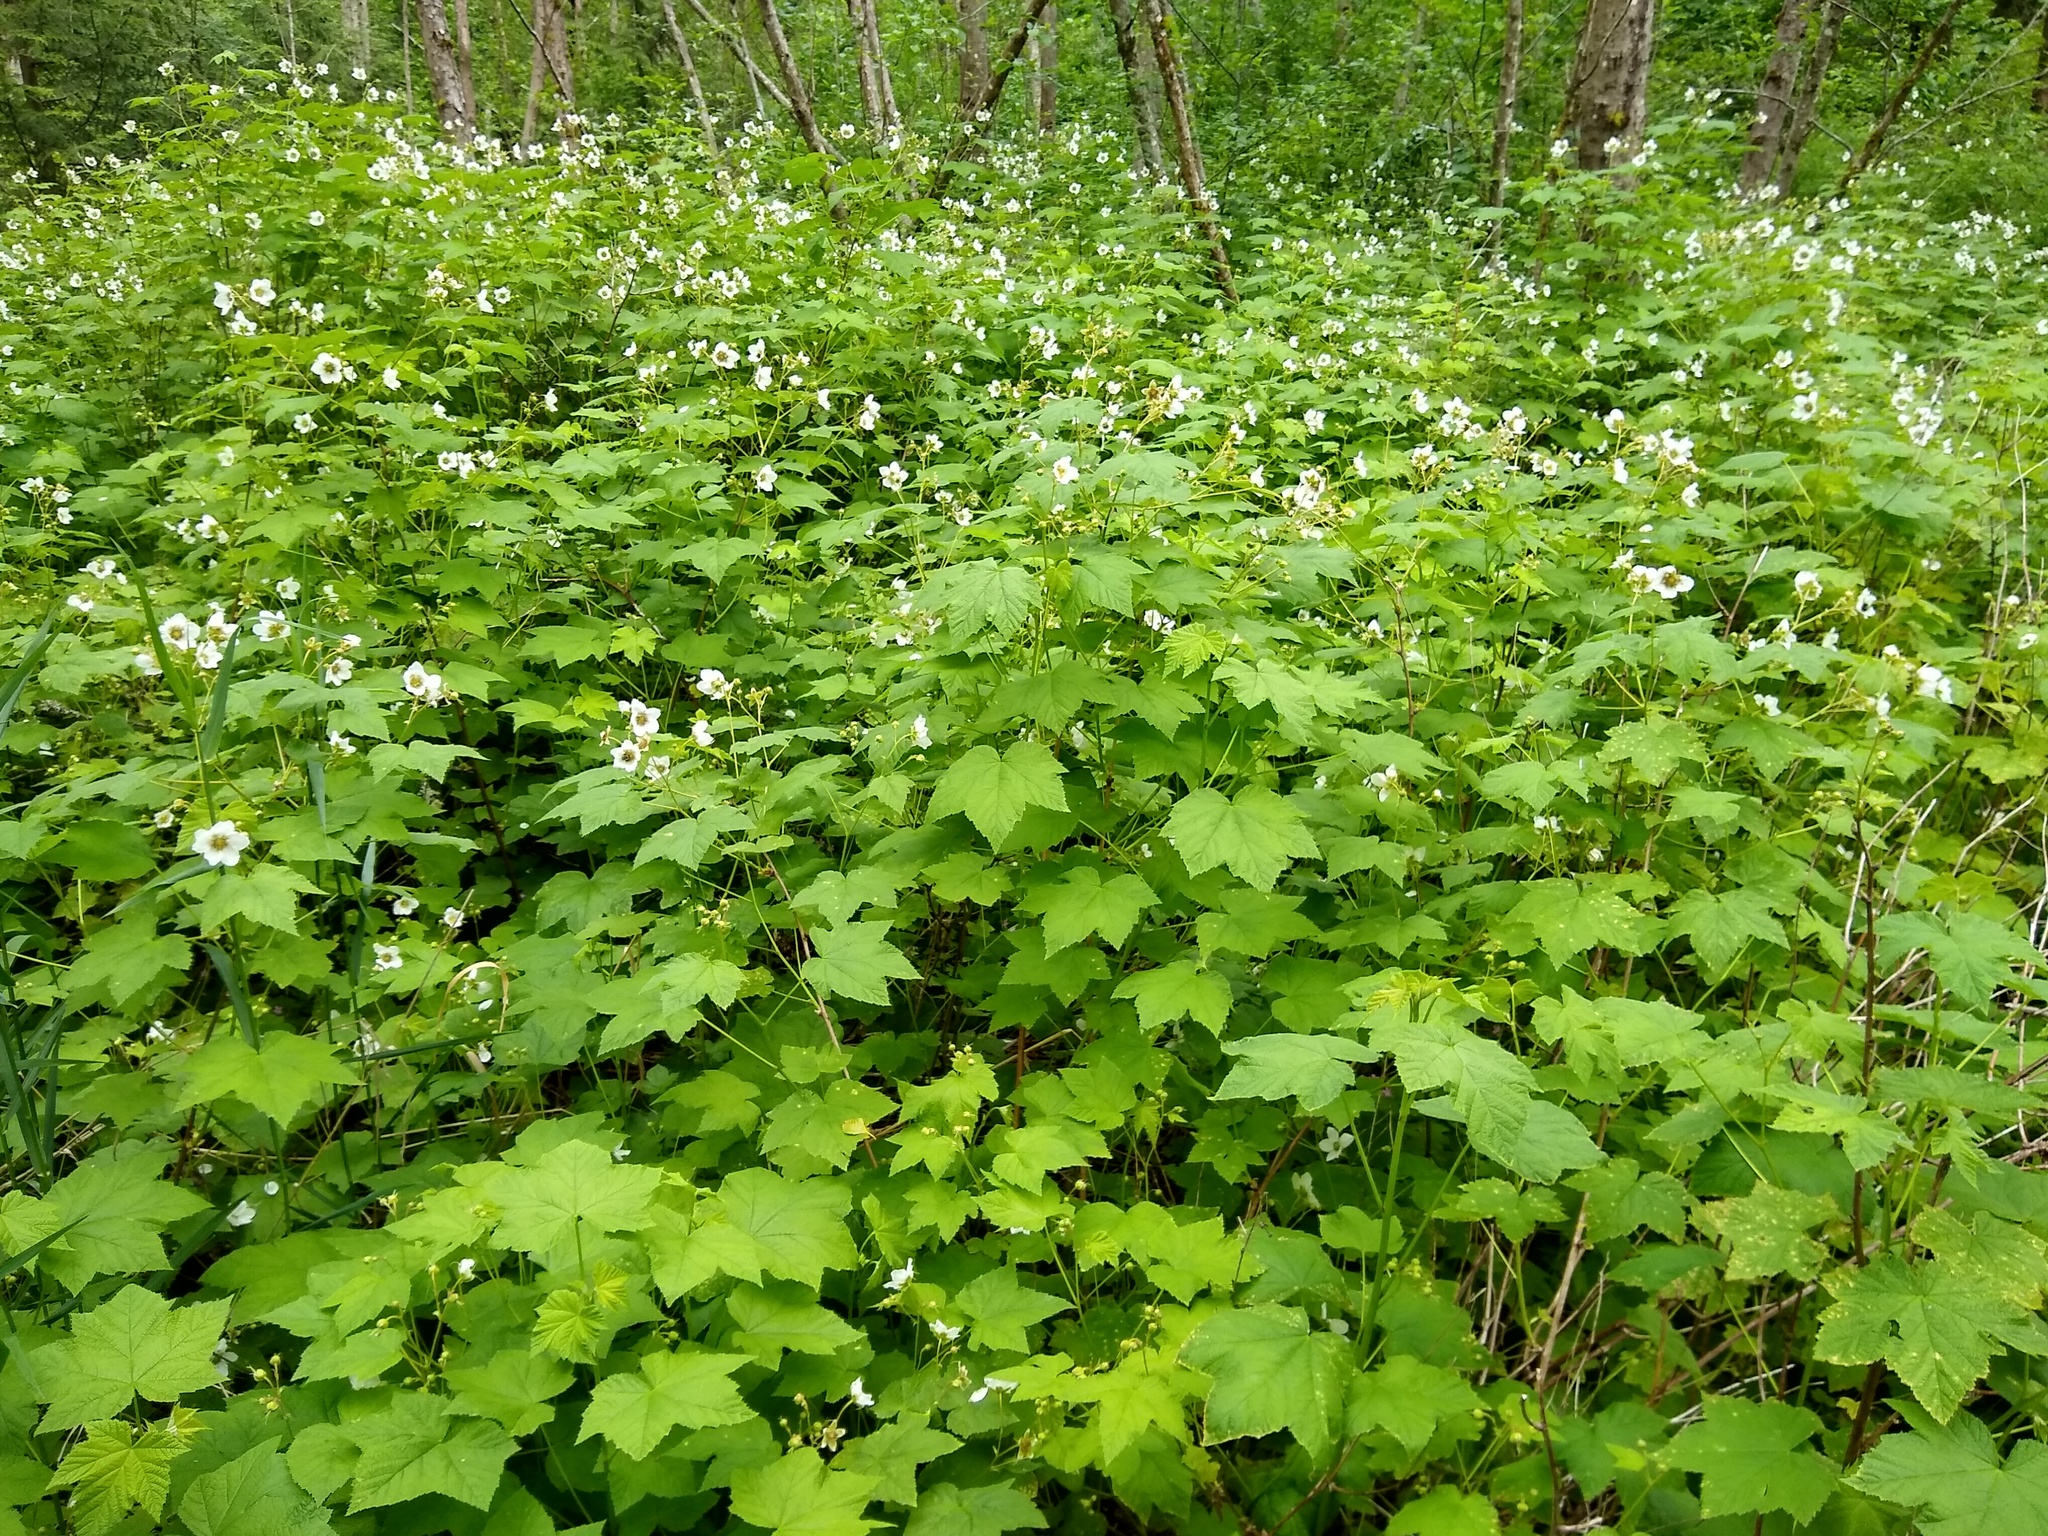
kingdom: Plantae
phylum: Tracheophyta
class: Magnoliopsida
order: Rosales
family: Rosaceae
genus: Rubus
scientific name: Rubus parviflorus
